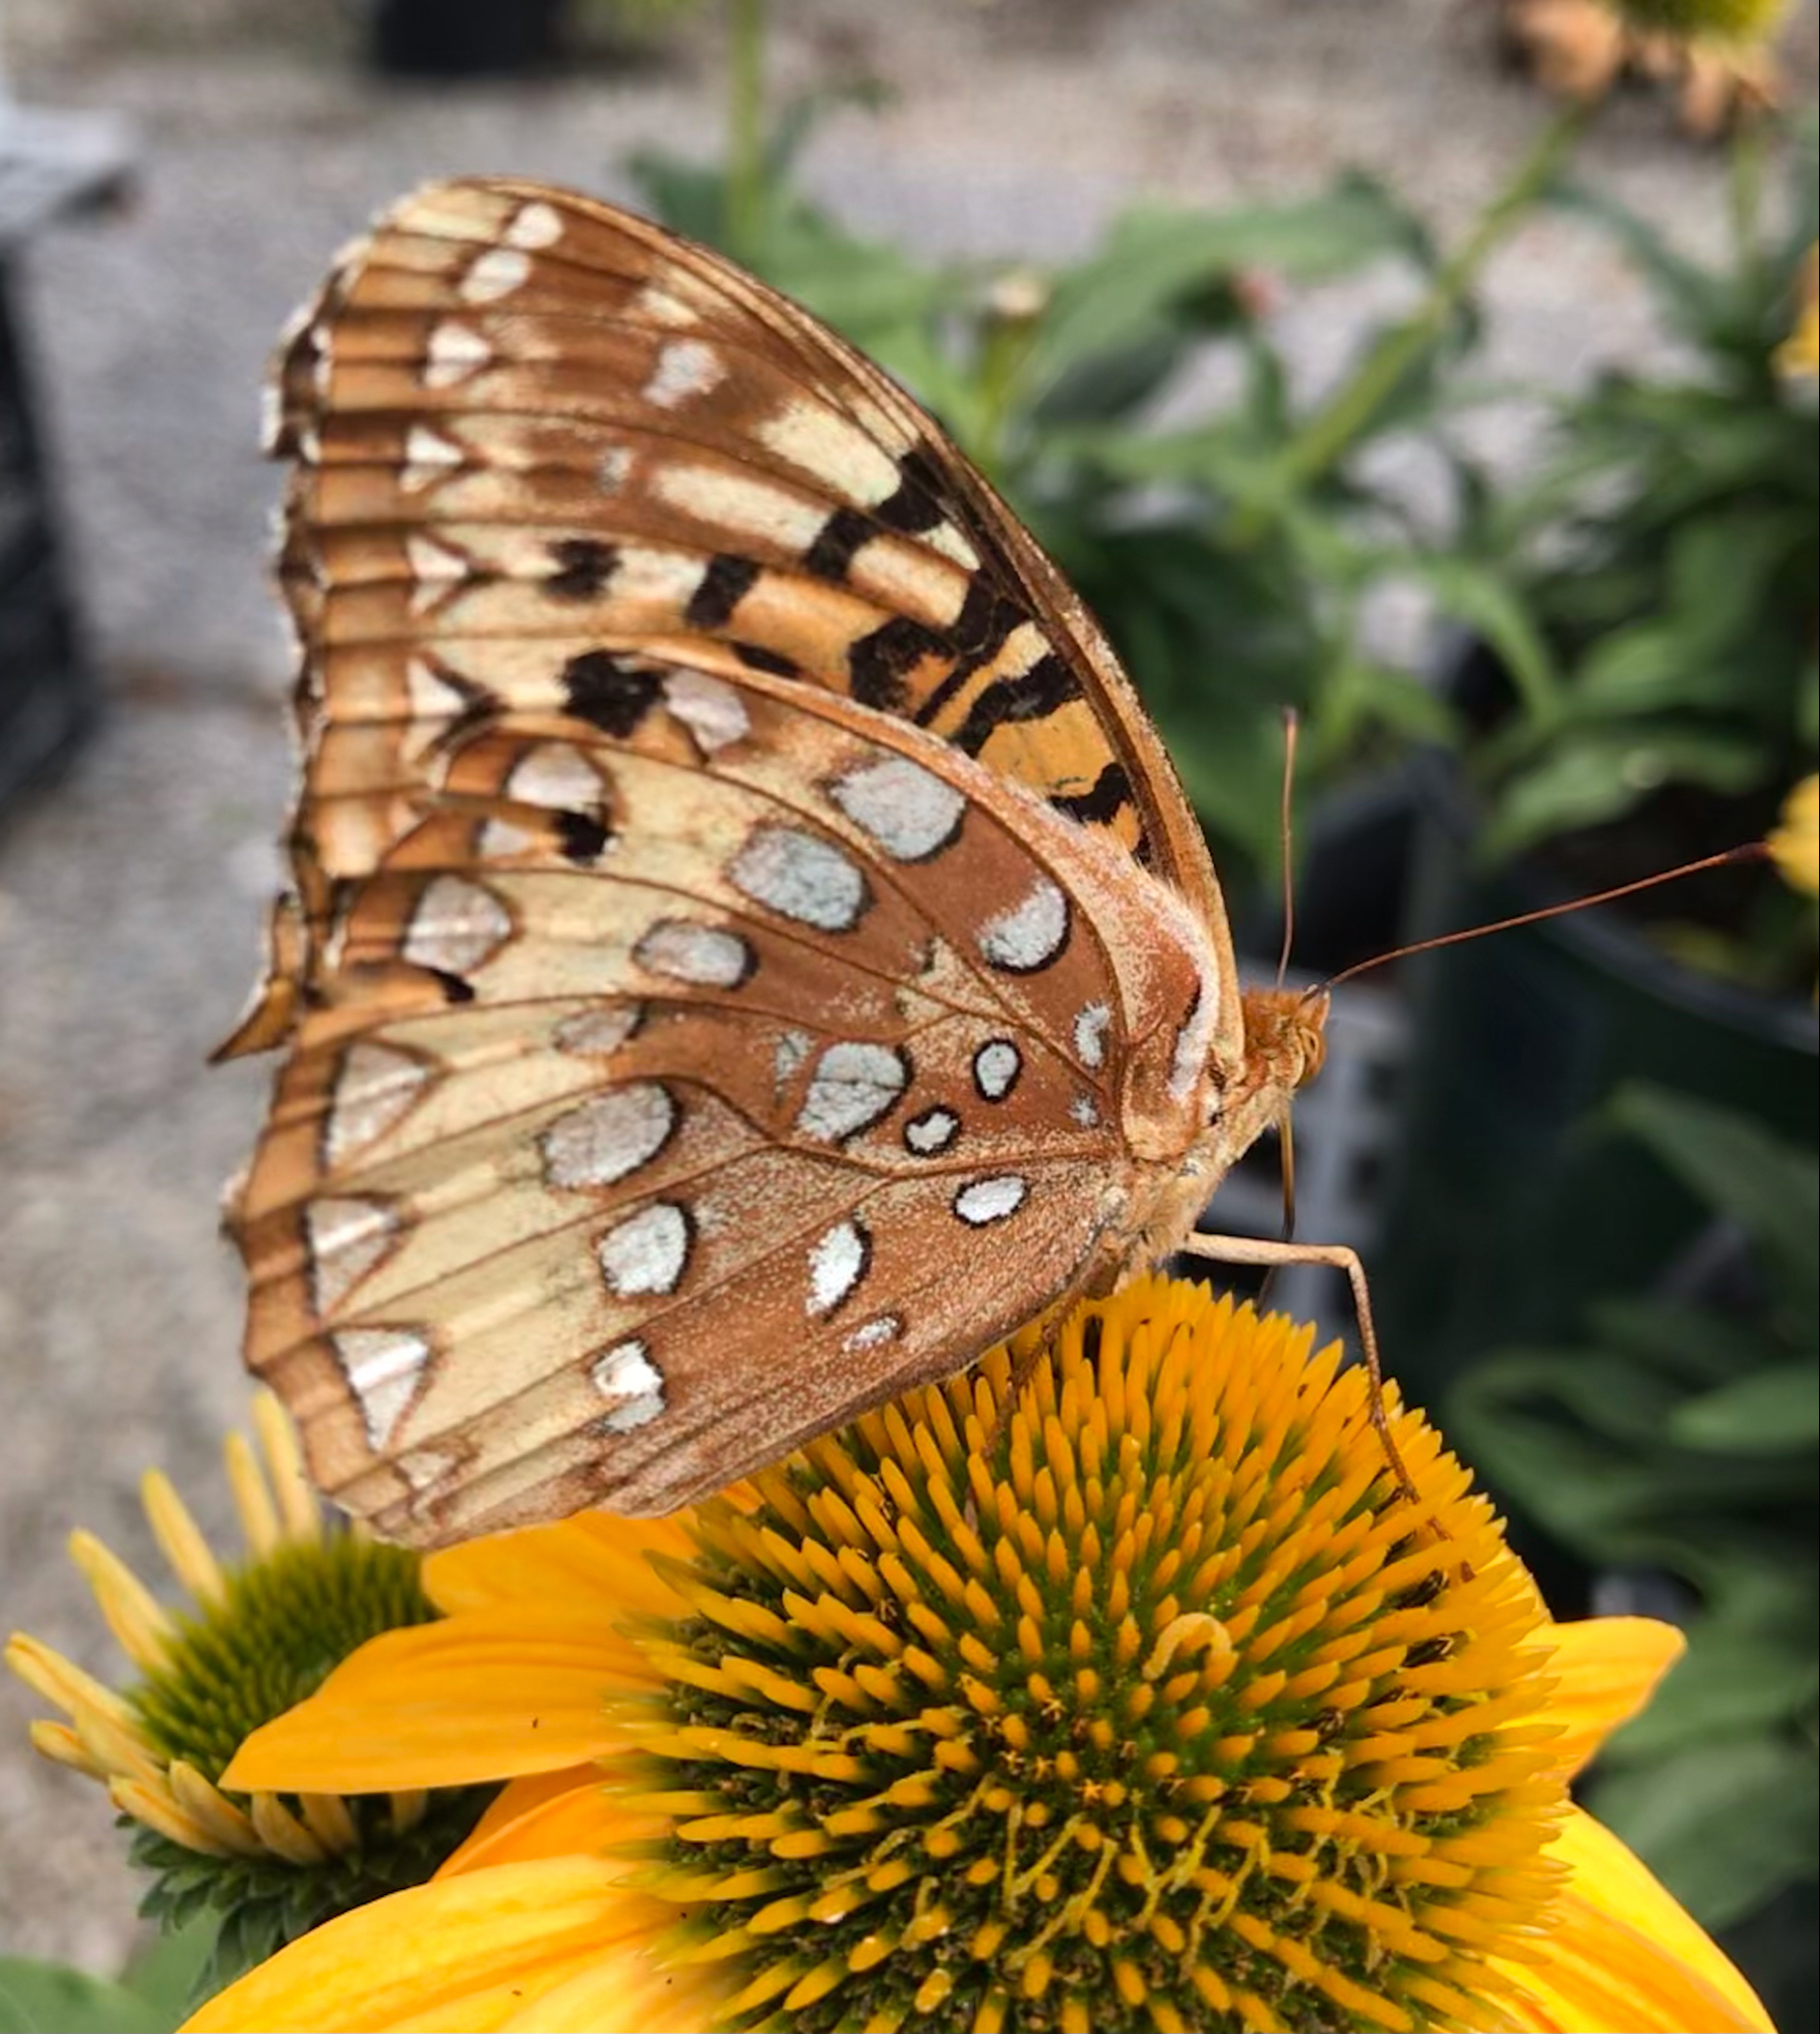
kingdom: Animalia
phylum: Arthropoda
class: Insecta
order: Lepidoptera
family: Nymphalidae
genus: Speyeria
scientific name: Speyeria cybele
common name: Great spangled fritillary
